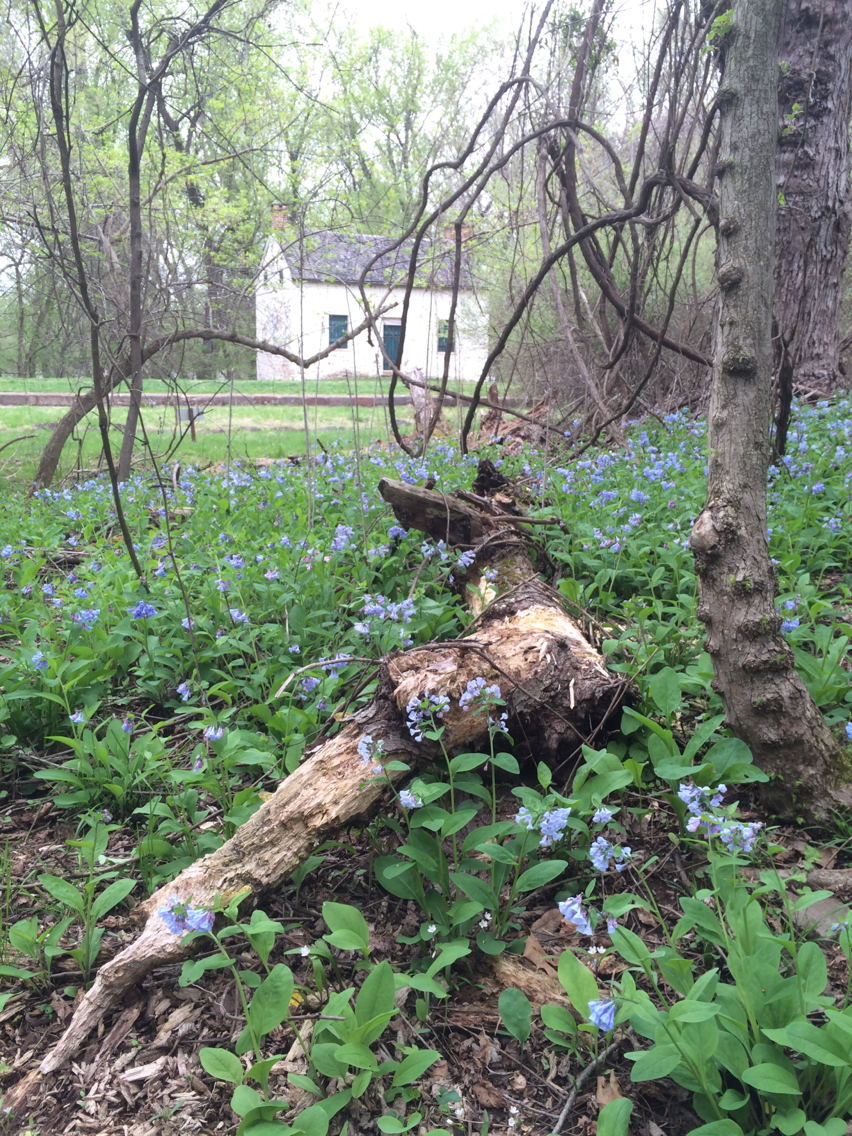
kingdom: Plantae
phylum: Tracheophyta
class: Magnoliopsida
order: Boraginales
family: Boraginaceae
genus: Mertensia
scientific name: Mertensia virginica
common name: Virginia bluebells
